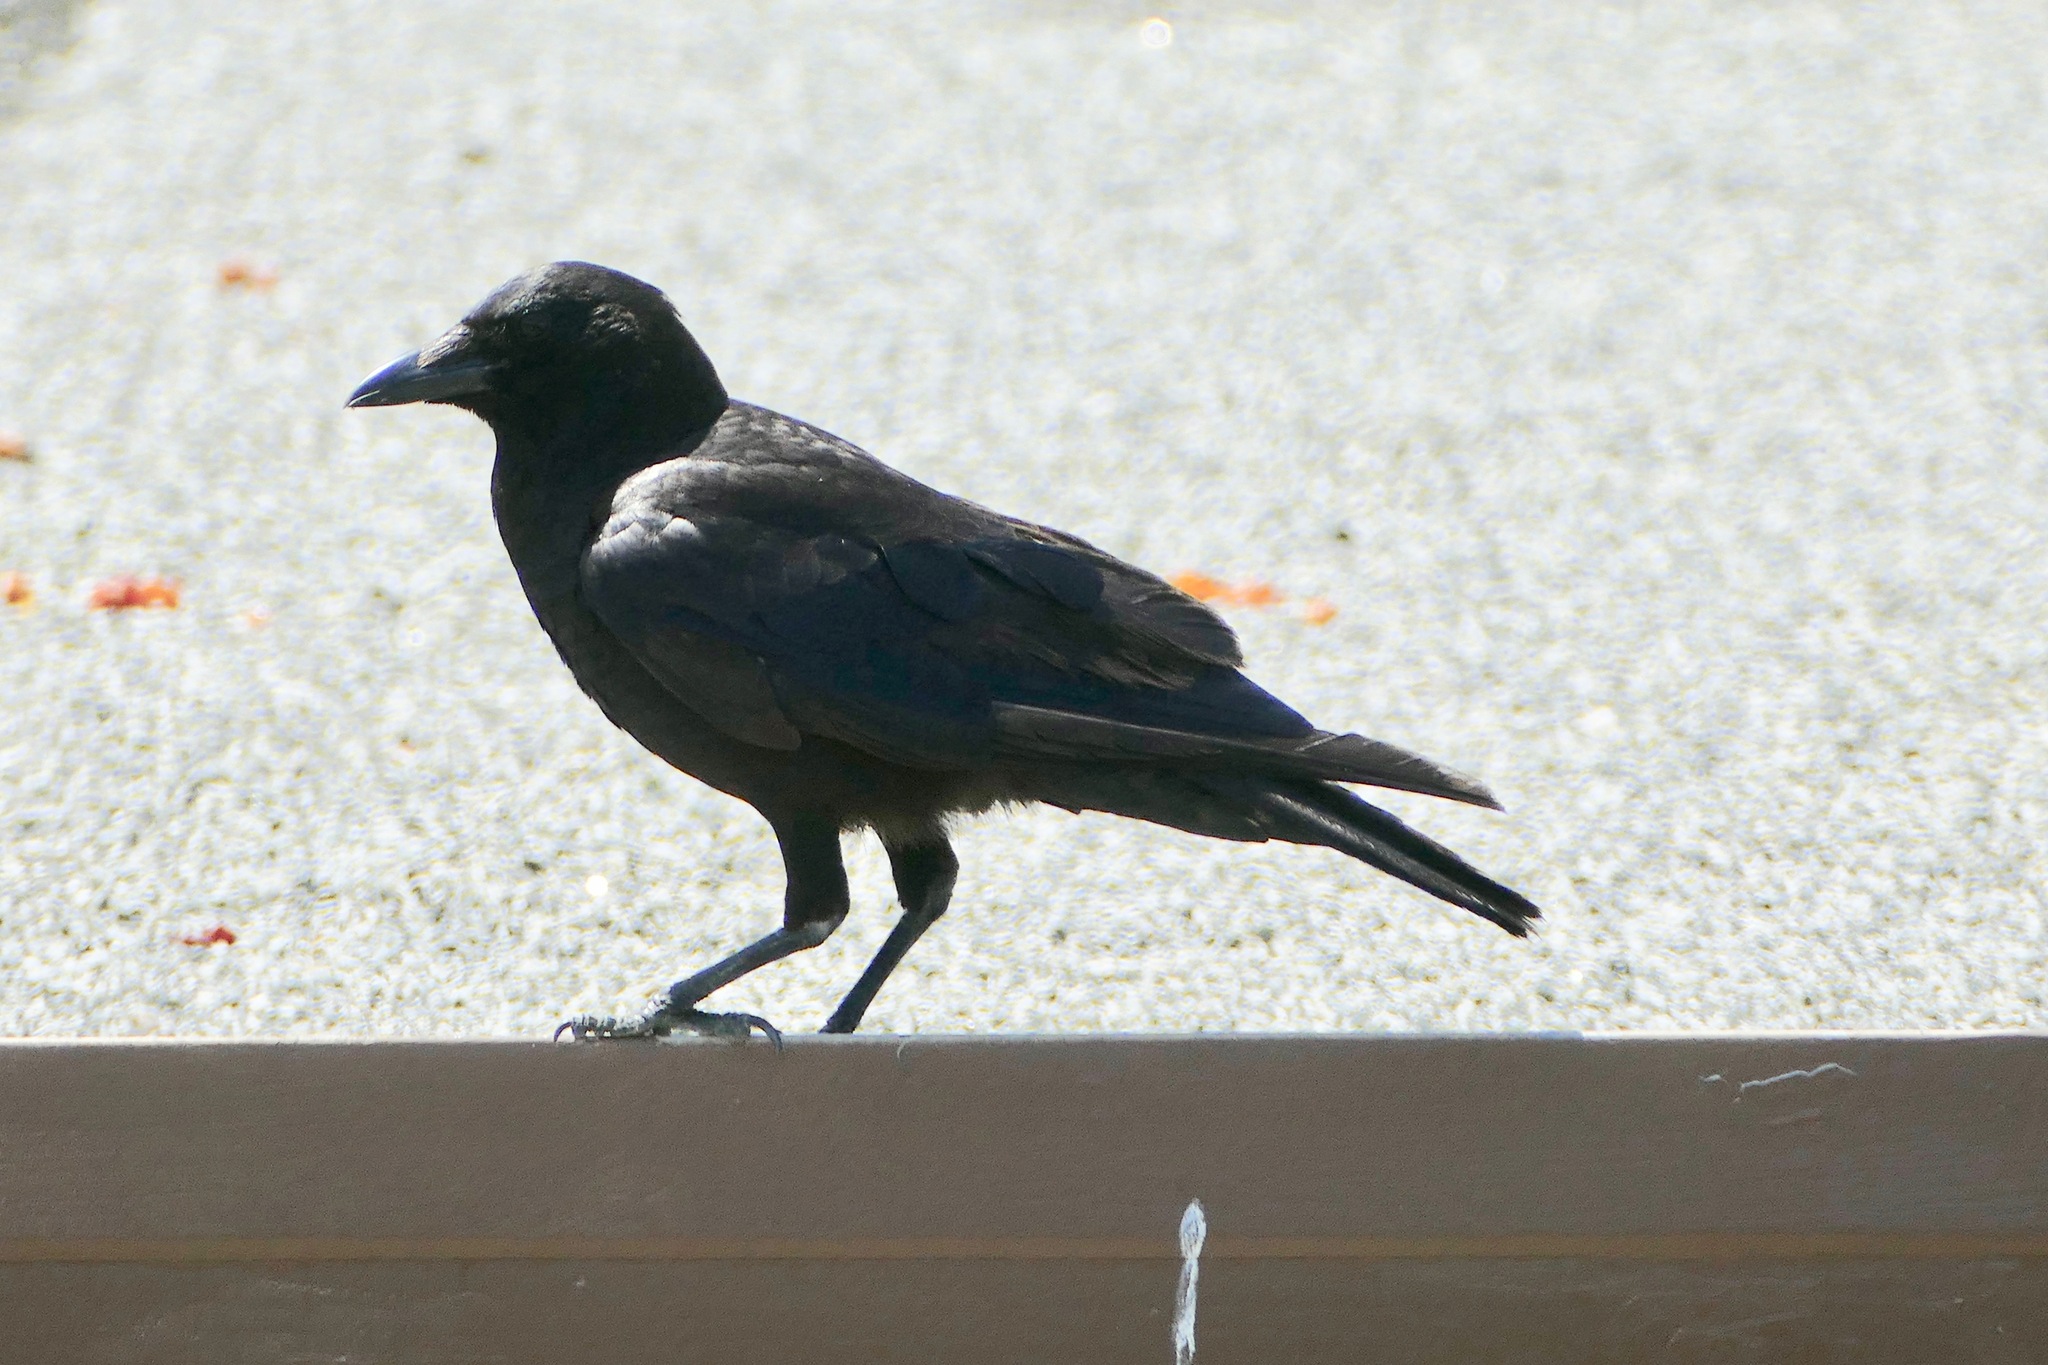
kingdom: Animalia
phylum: Chordata
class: Aves
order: Passeriformes
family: Corvidae
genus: Corvus
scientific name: Corvus brachyrhynchos
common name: American crow
